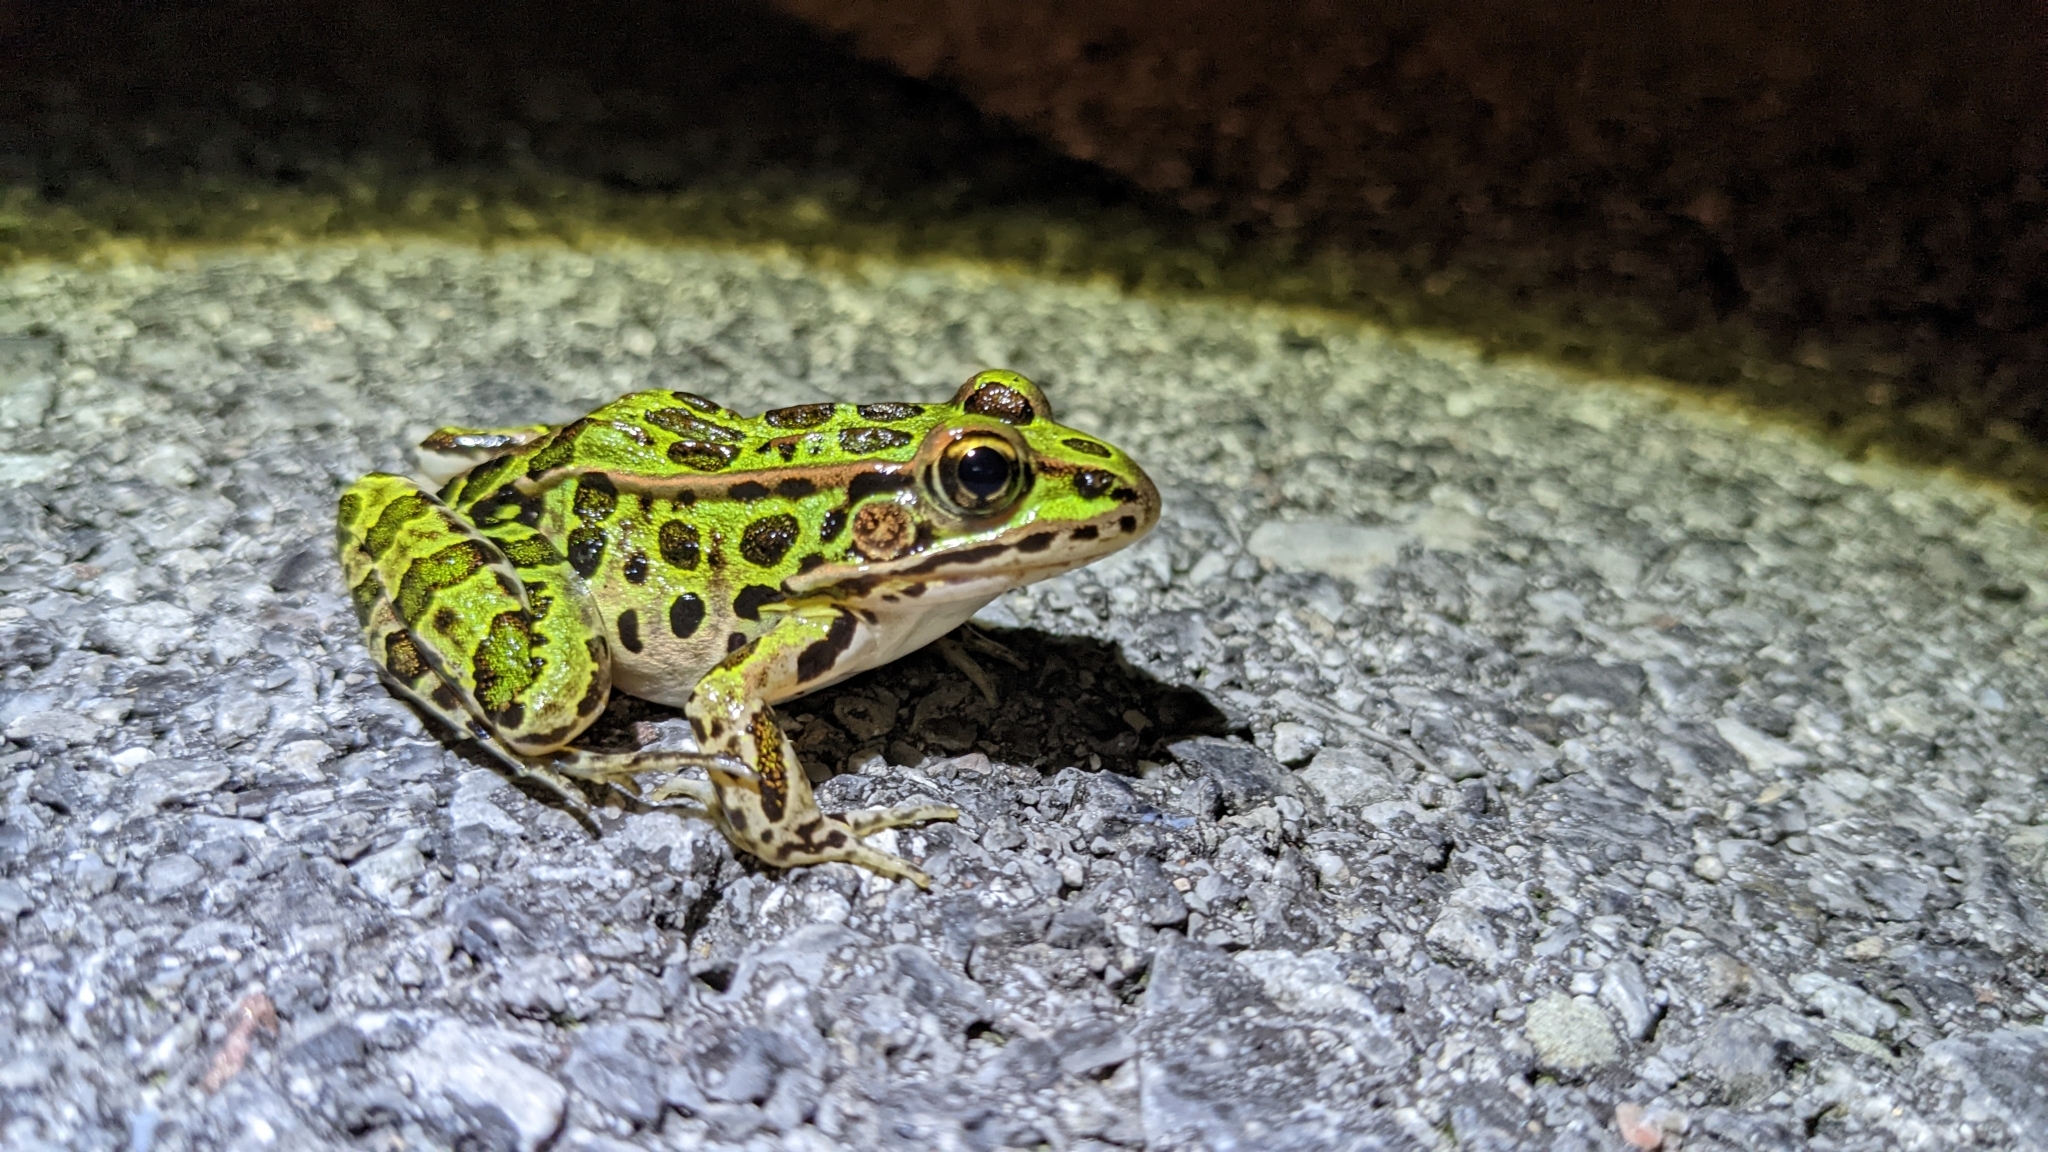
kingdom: Animalia
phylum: Chordata
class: Amphibia
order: Anura
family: Ranidae
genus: Lithobates
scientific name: Lithobates pipiens
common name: Northern leopard frog
